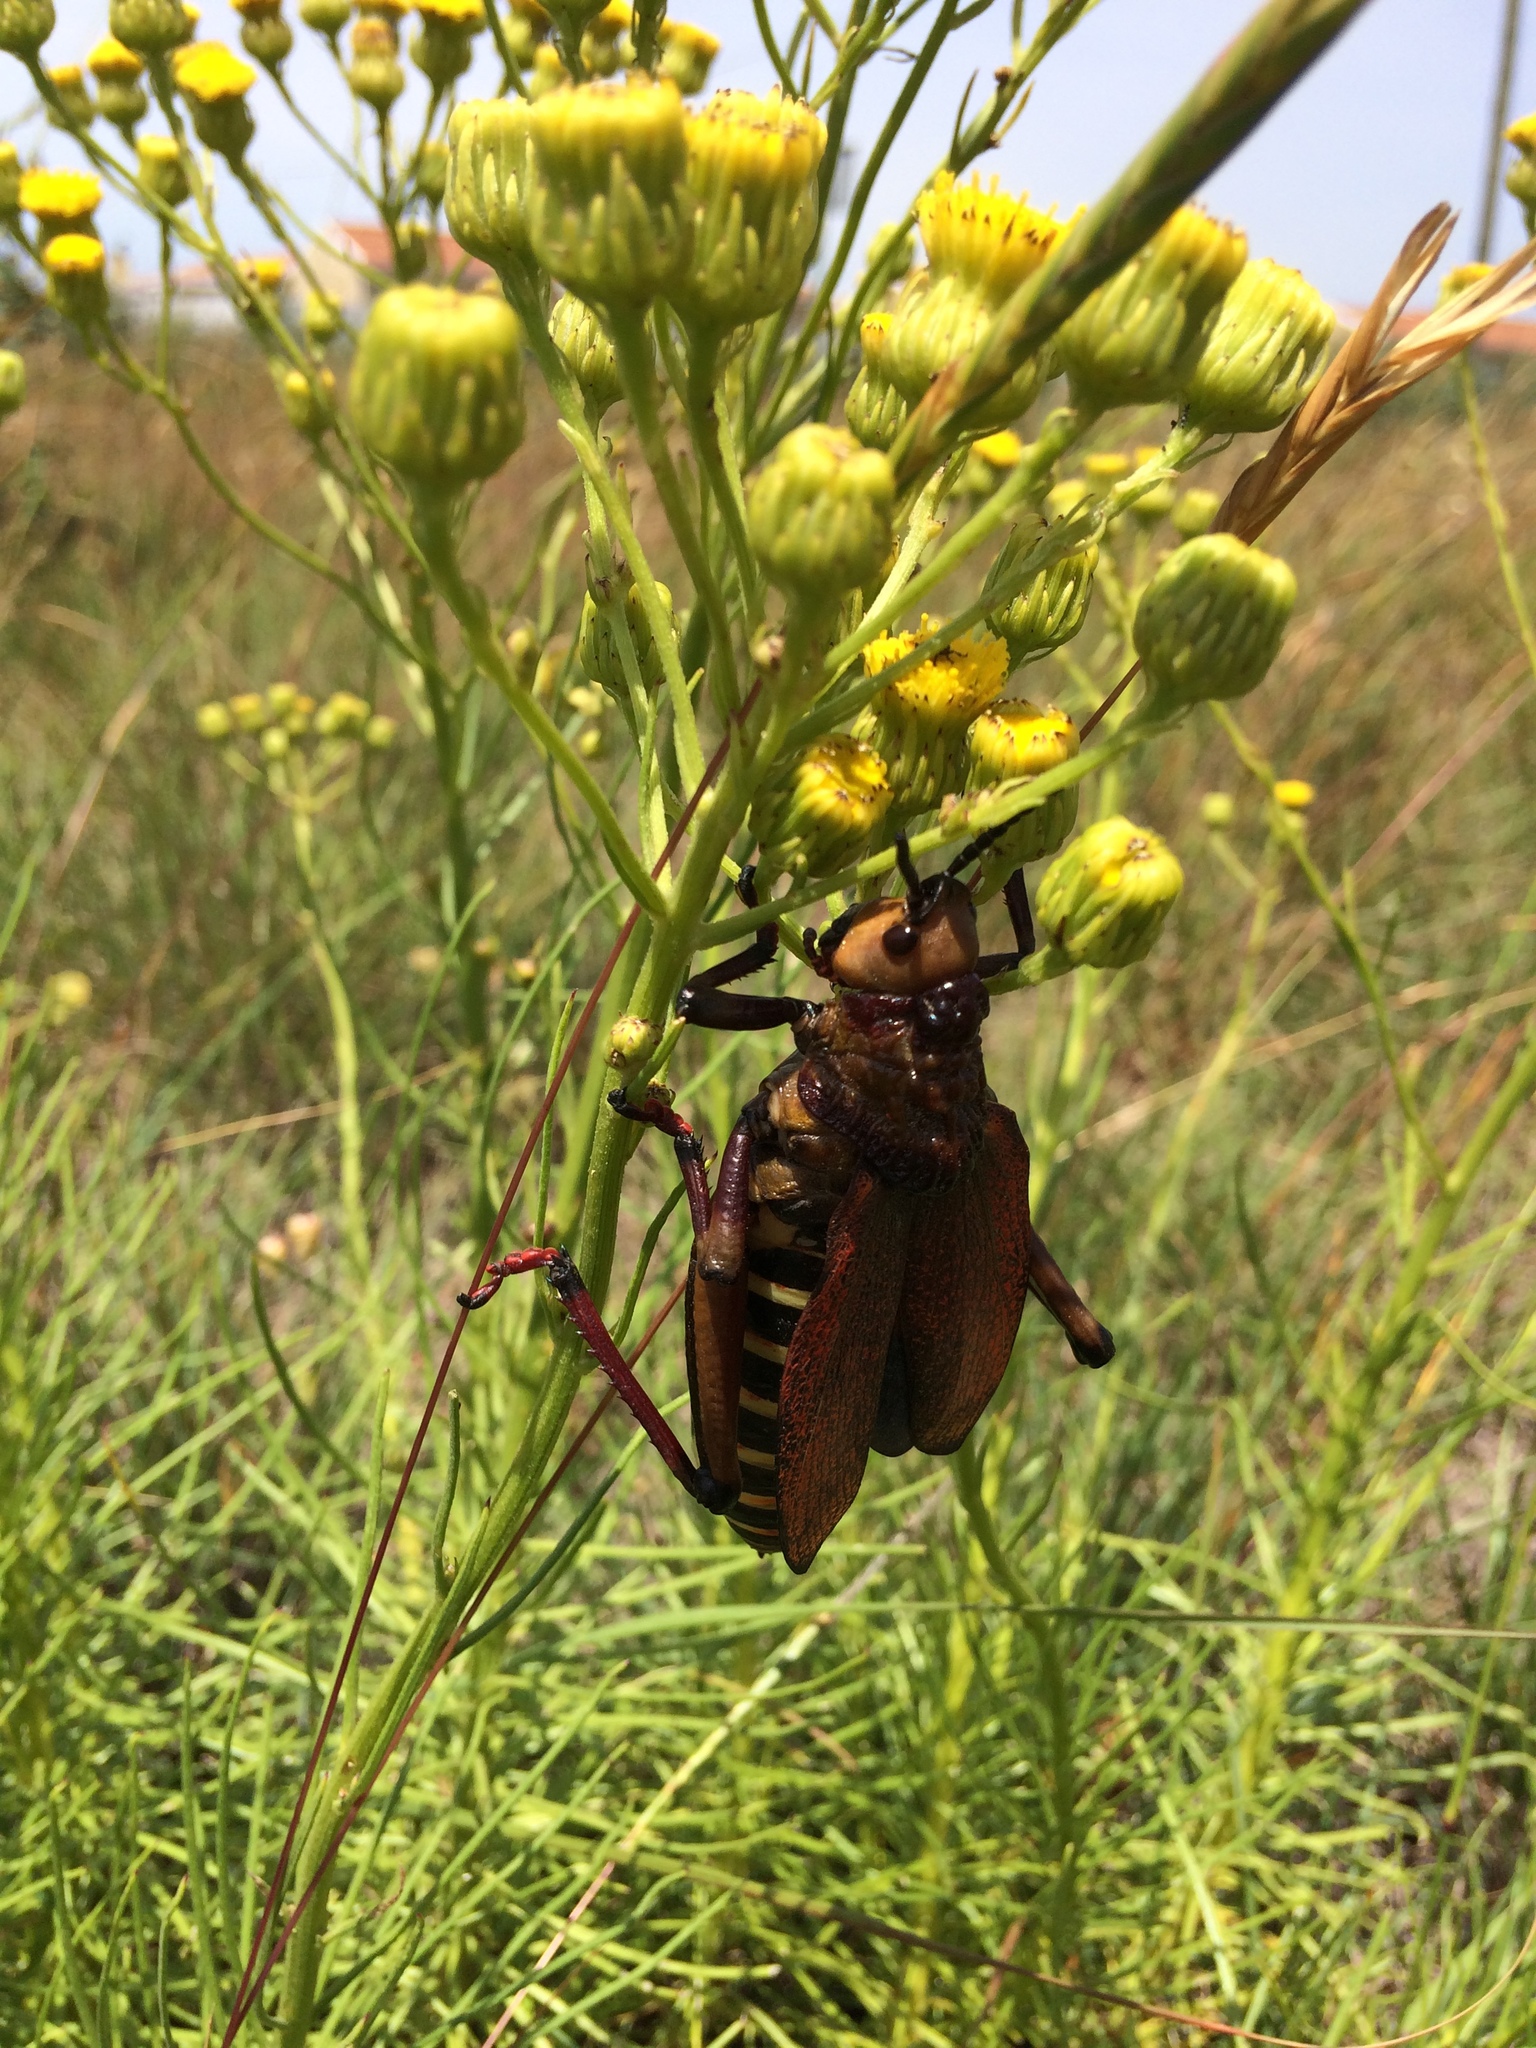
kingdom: Animalia
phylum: Arthropoda
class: Insecta
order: Orthoptera
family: Pyrgomorphidae
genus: Dictyophorus
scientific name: Dictyophorus spumans
